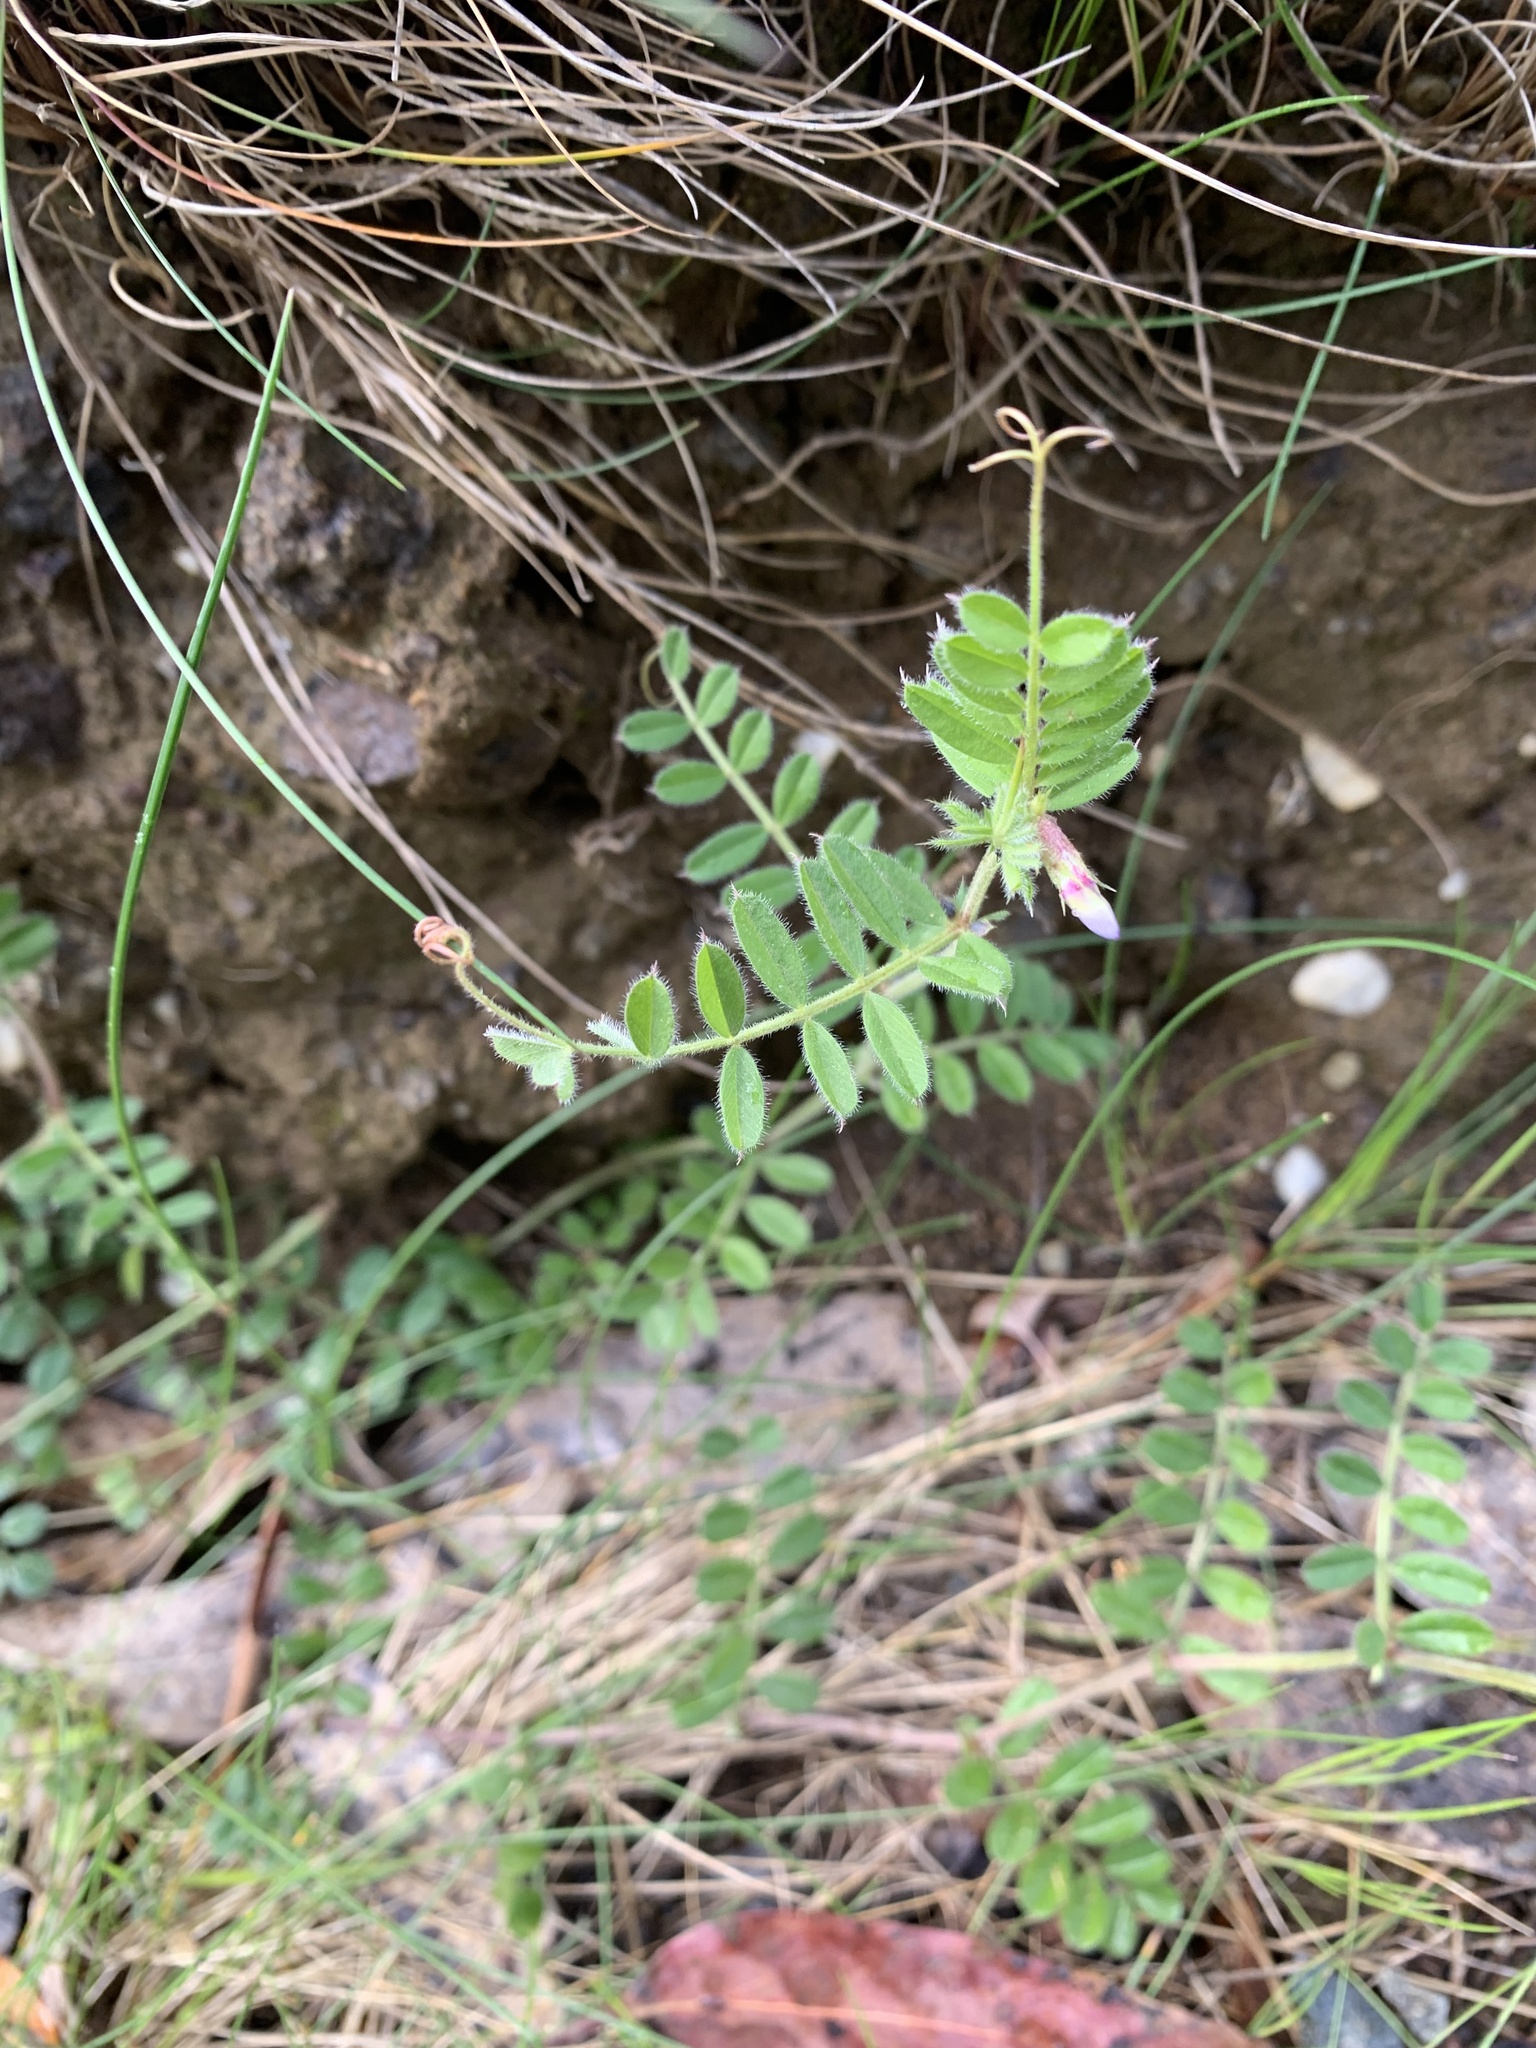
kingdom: Plantae
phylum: Tracheophyta
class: Magnoliopsida
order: Fabales
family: Fabaceae
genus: Vicia
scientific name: Vicia sativa
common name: Garden vetch
